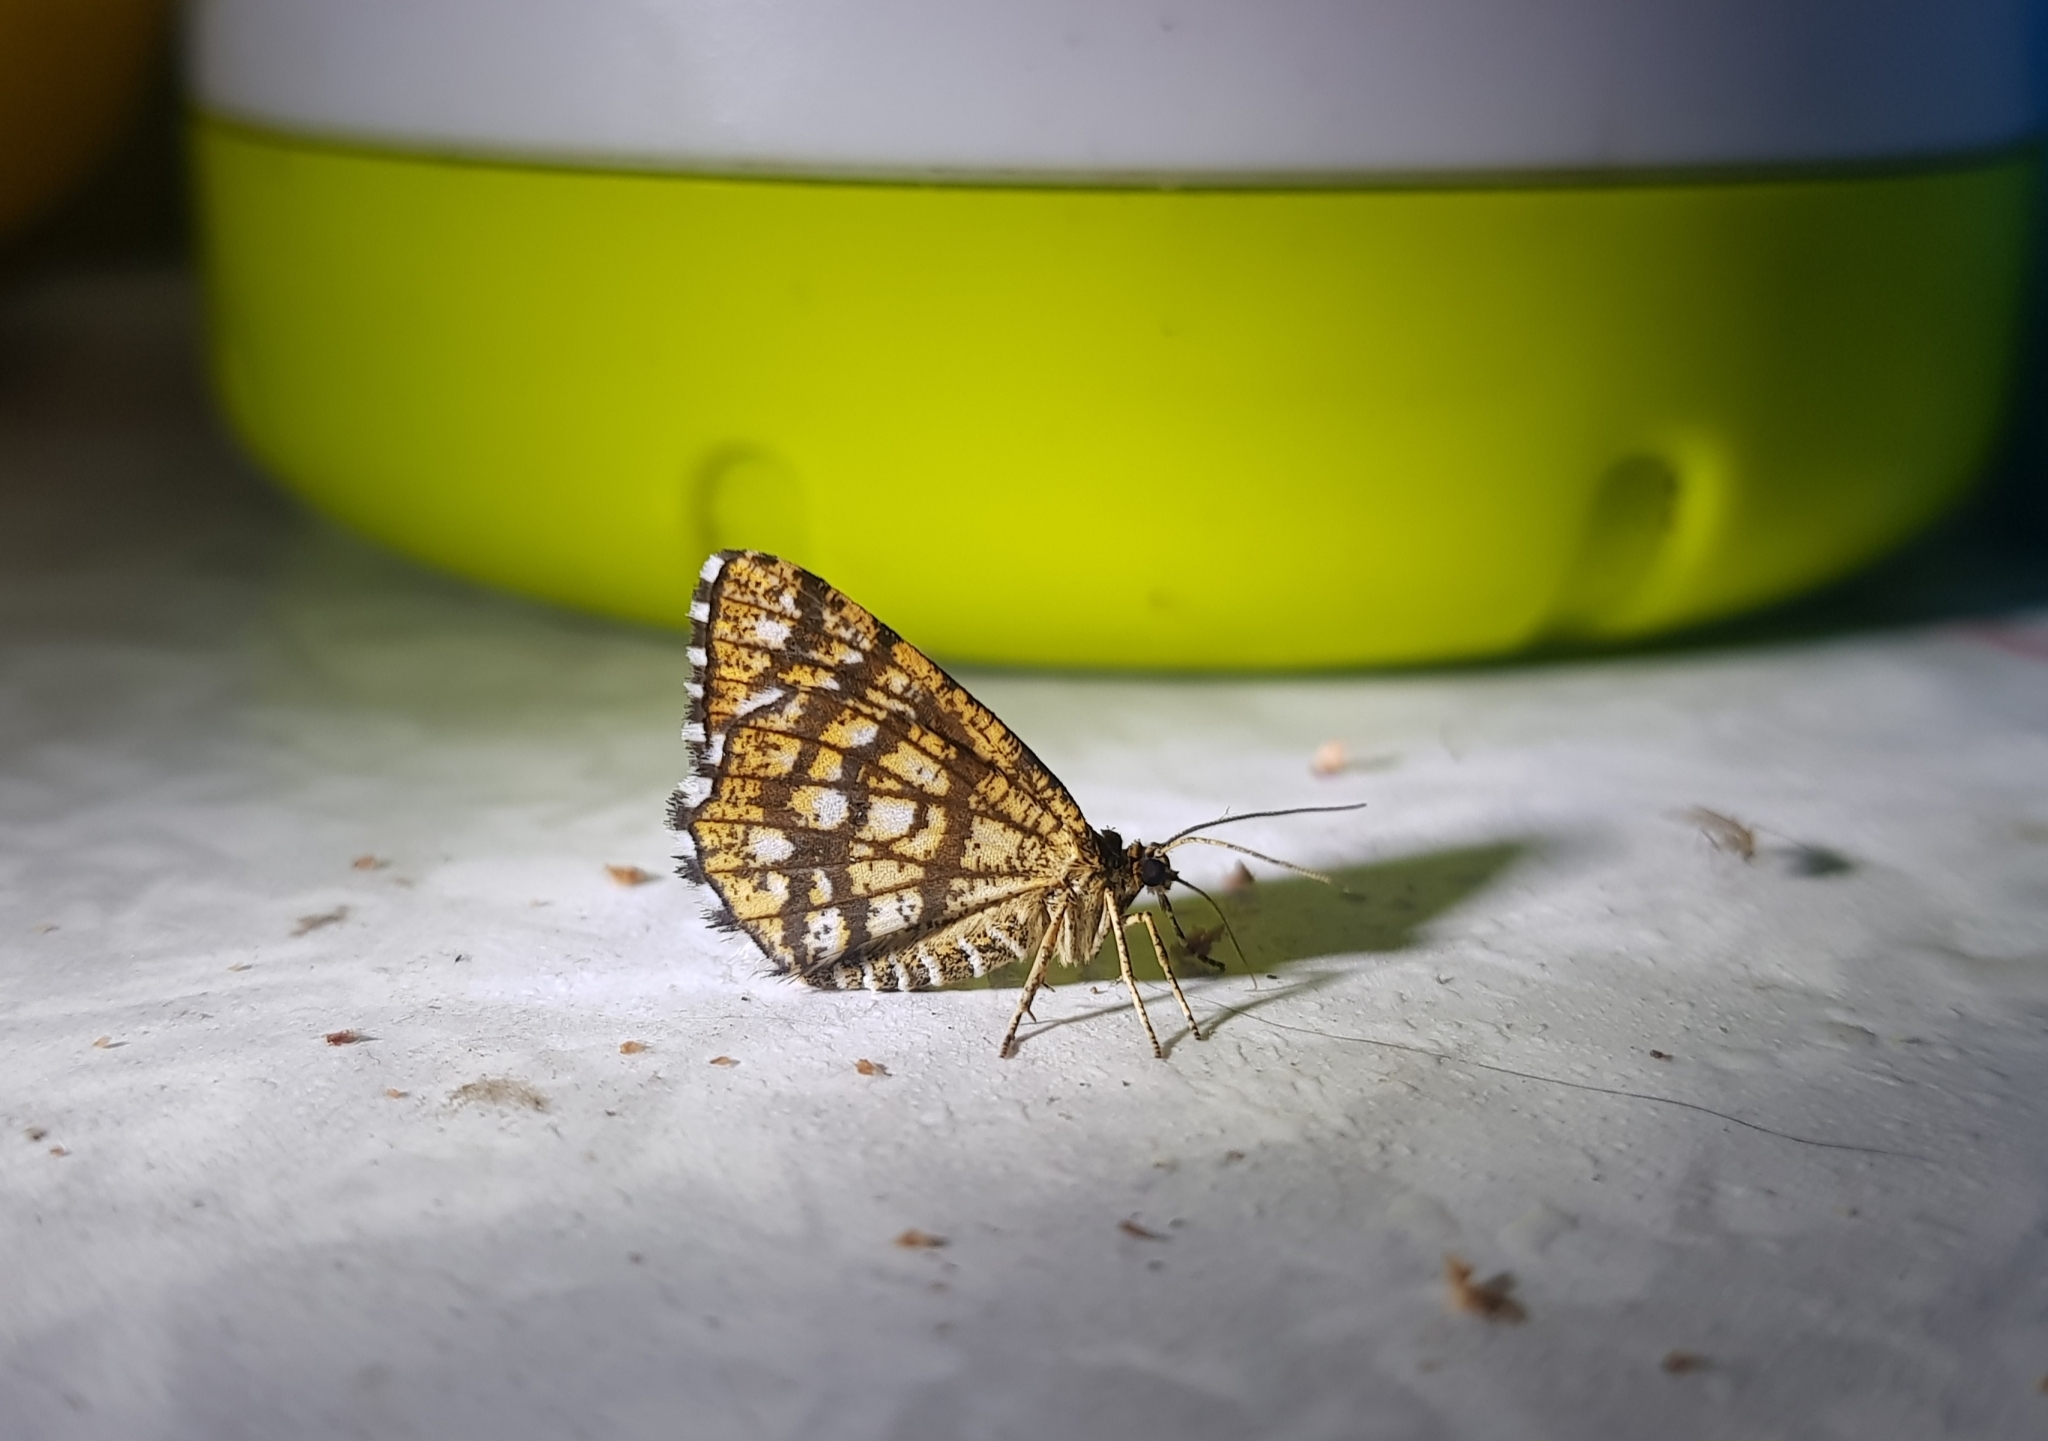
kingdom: Animalia
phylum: Arthropoda
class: Insecta
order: Lepidoptera
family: Geometridae
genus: Chiasmia
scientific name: Chiasmia clathrata
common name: Latticed heath
